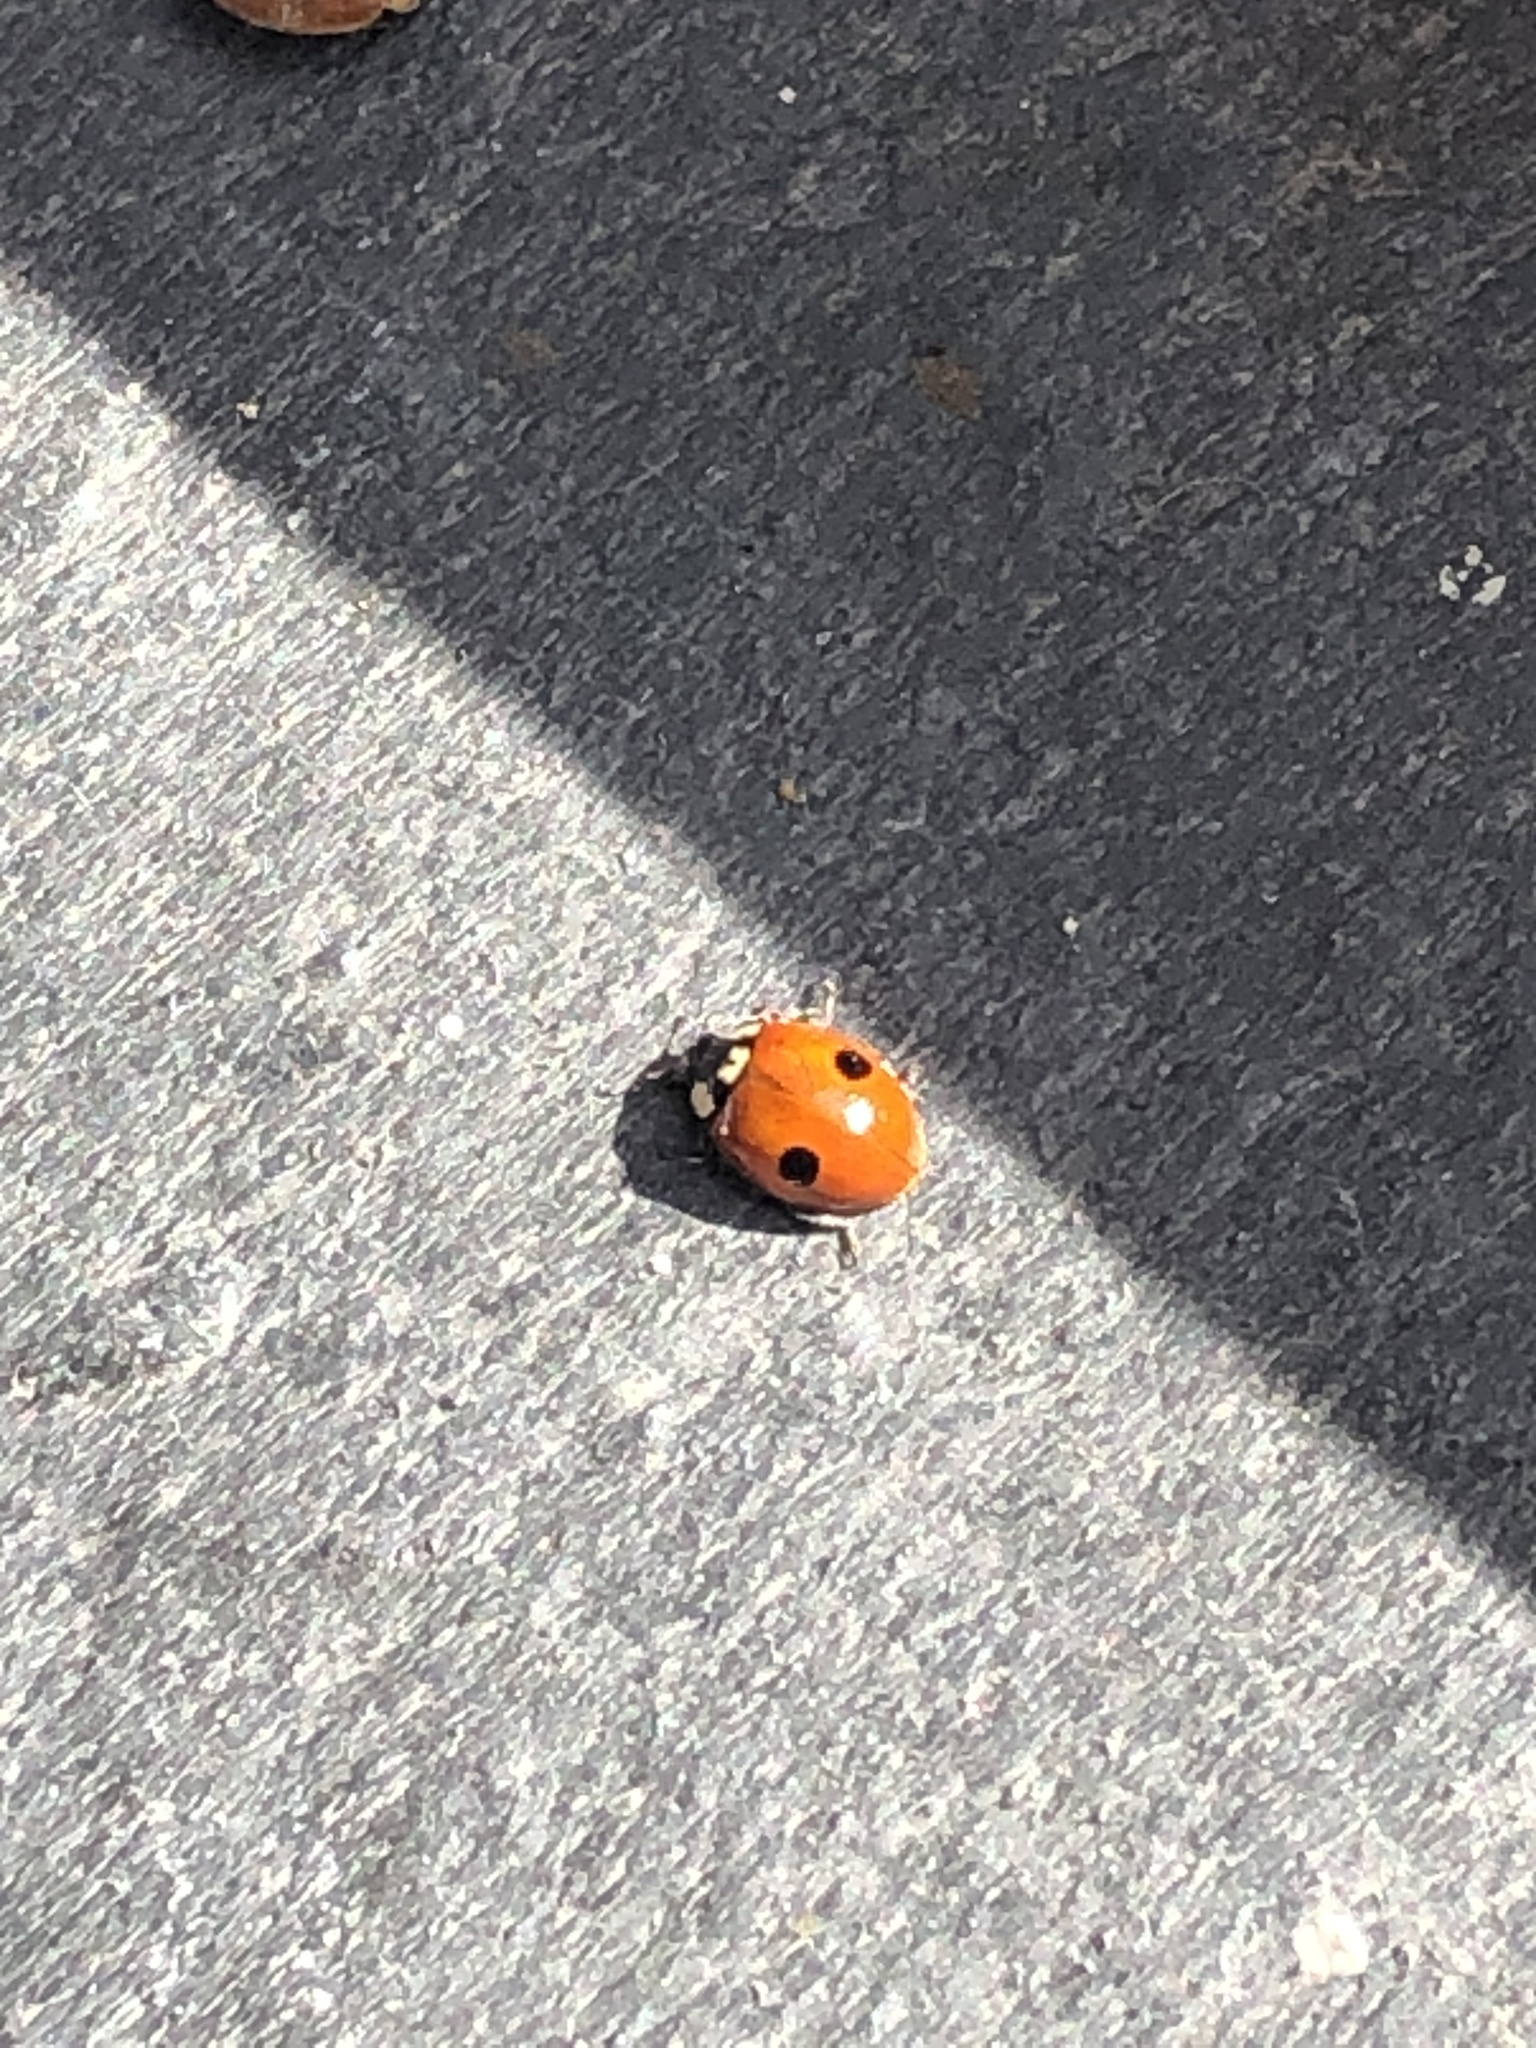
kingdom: Animalia
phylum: Arthropoda
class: Insecta
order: Coleoptera
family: Coccinellidae
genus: Adalia
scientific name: Adalia bipunctata
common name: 2-spot ladybird
